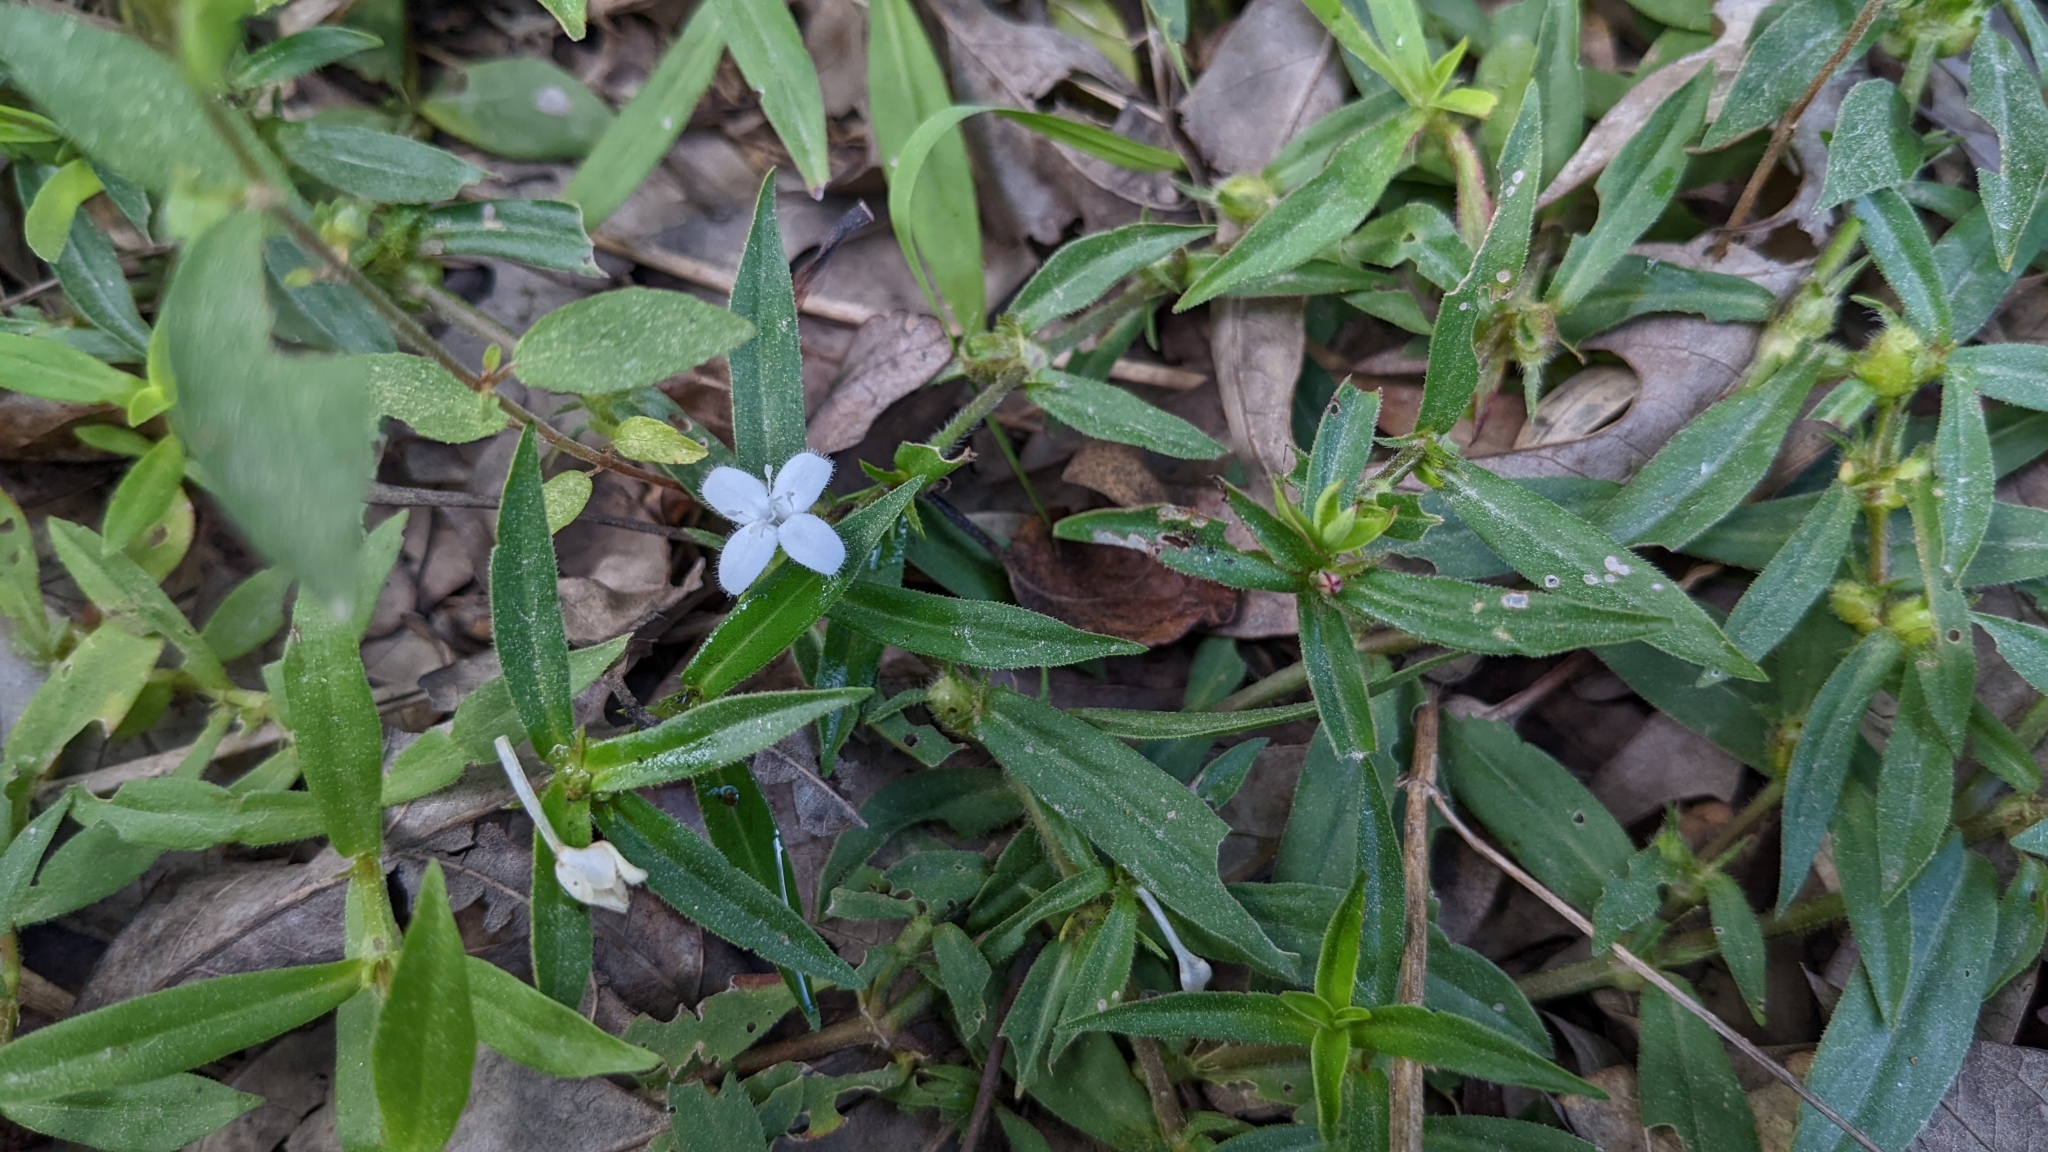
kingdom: Plantae
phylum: Tracheophyta
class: Magnoliopsida
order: Gentianales
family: Rubiaceae
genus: Diodia
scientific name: Diodia virginiana
